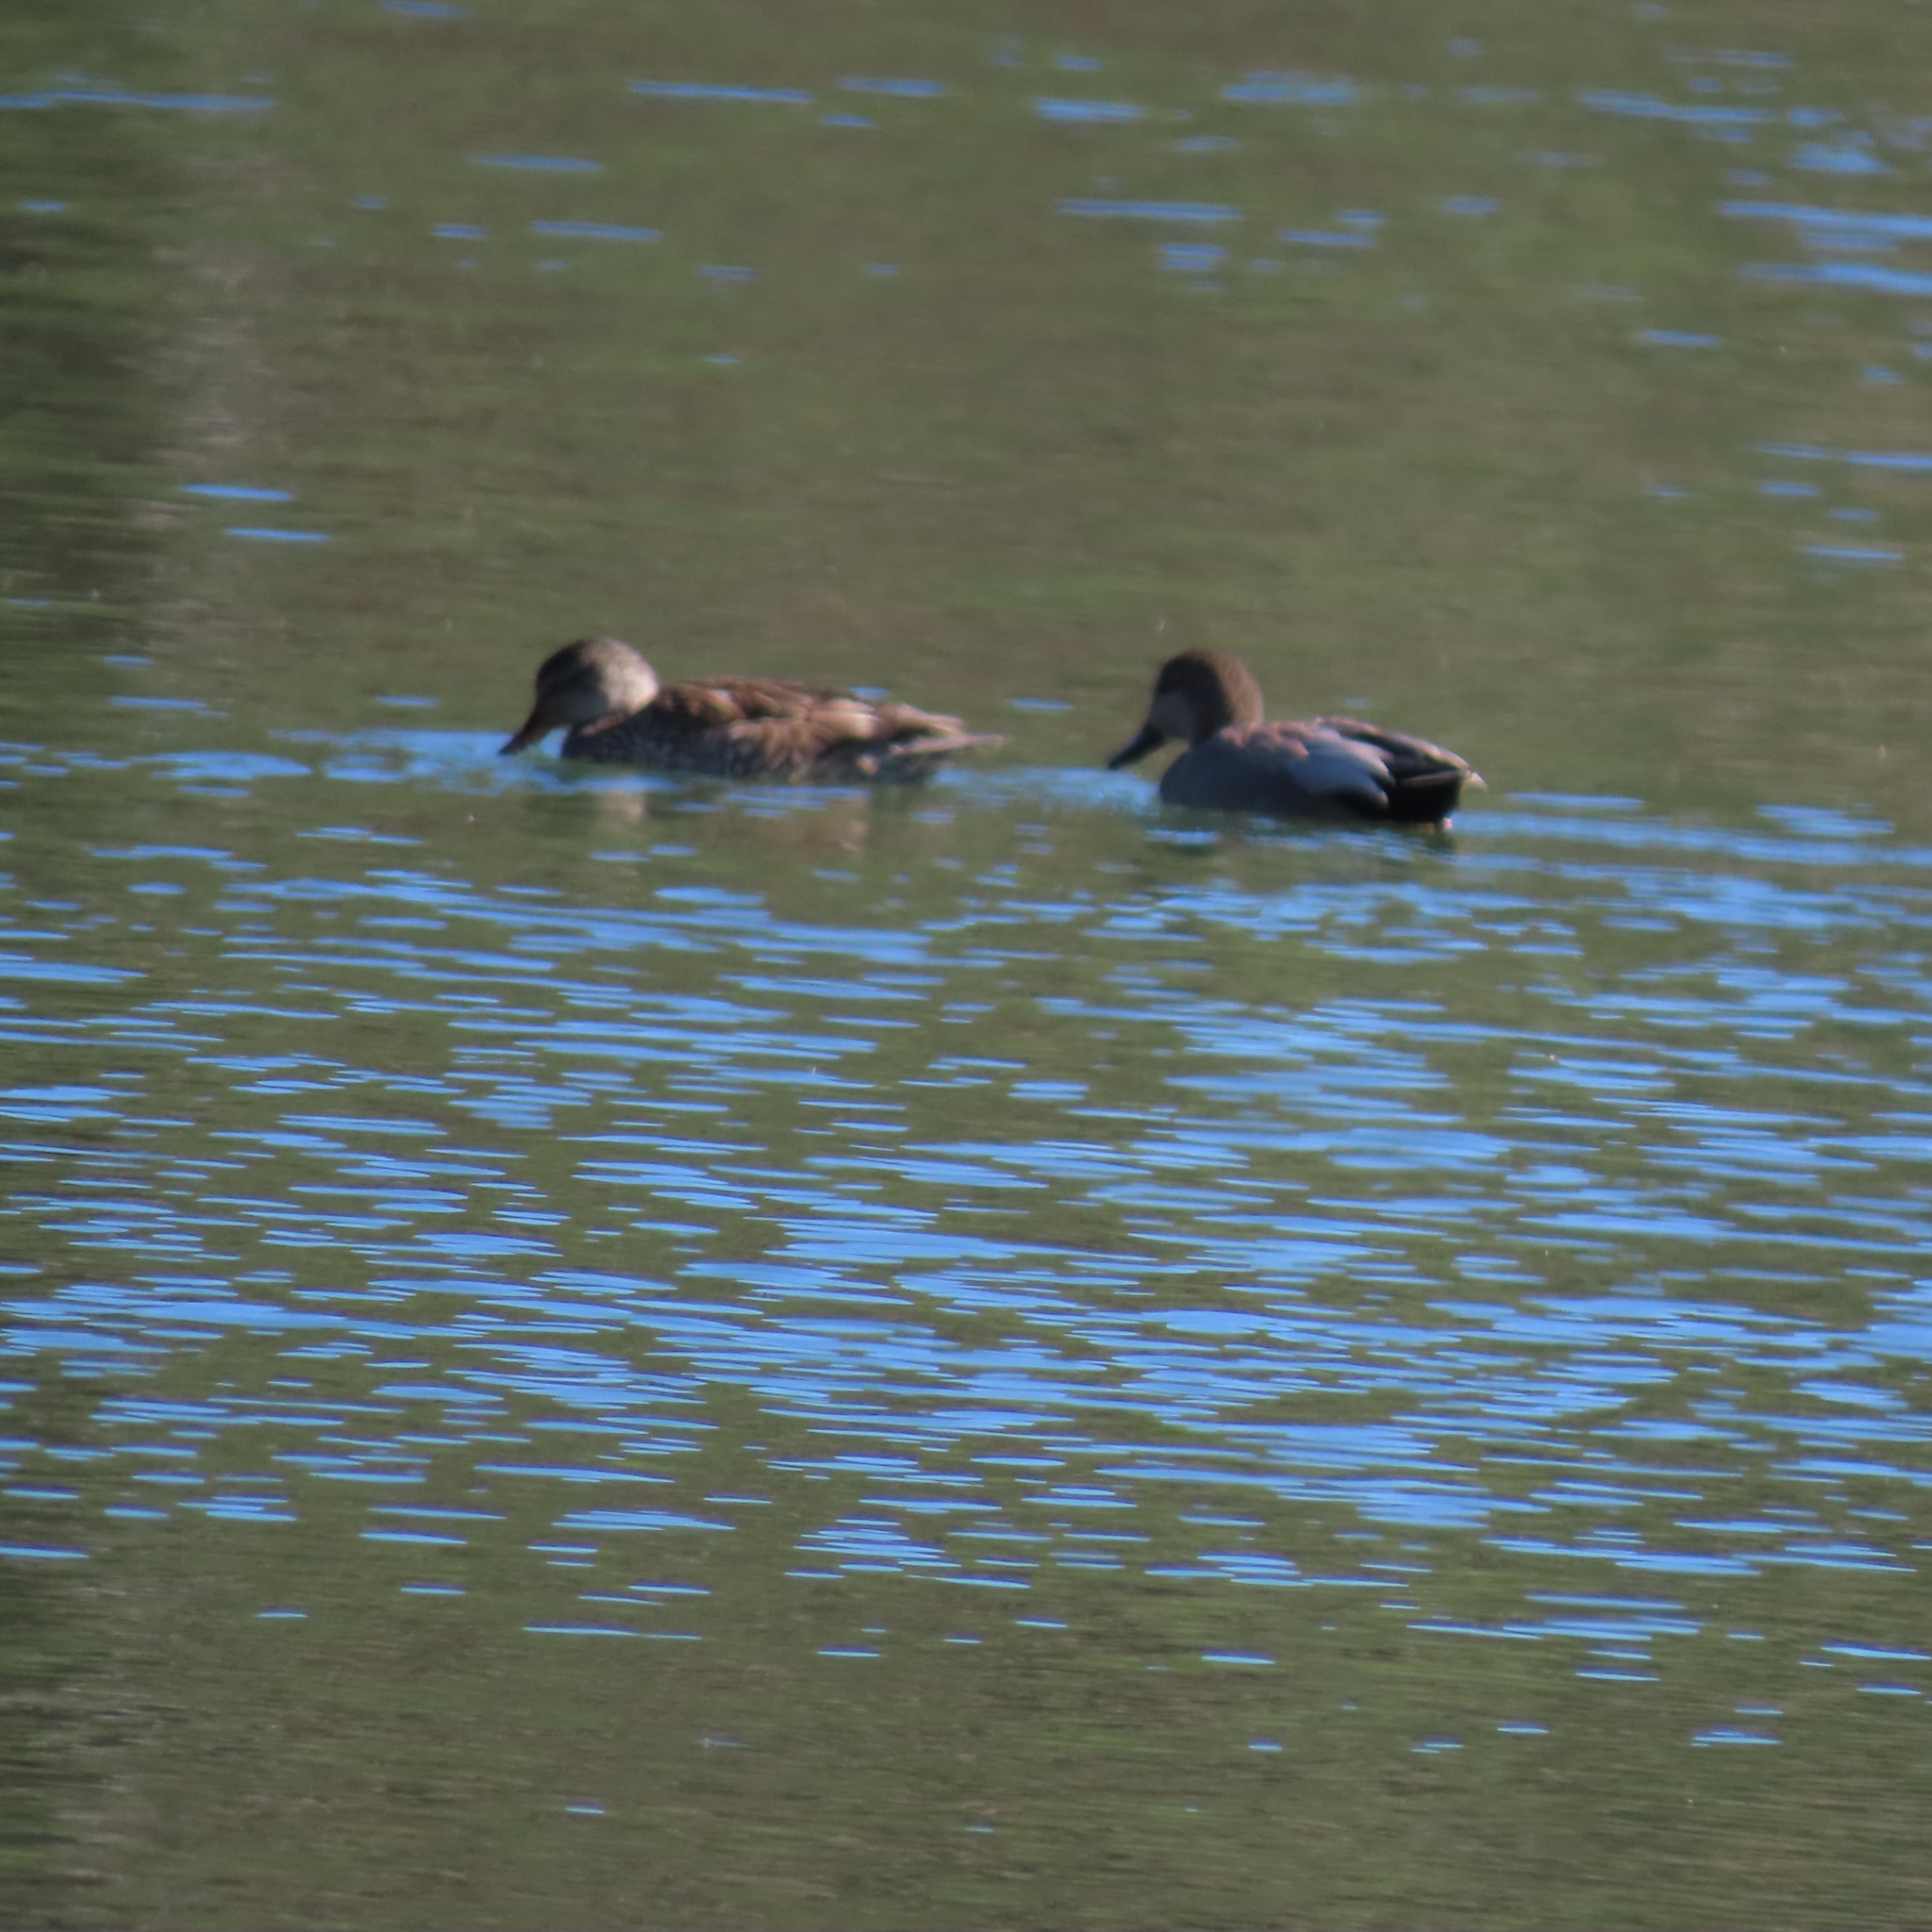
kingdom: Animalia
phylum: Chordata
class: Aves
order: Anseriformes
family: Anatidae
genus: Mareca
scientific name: Mareca strepera
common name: Gadwall
